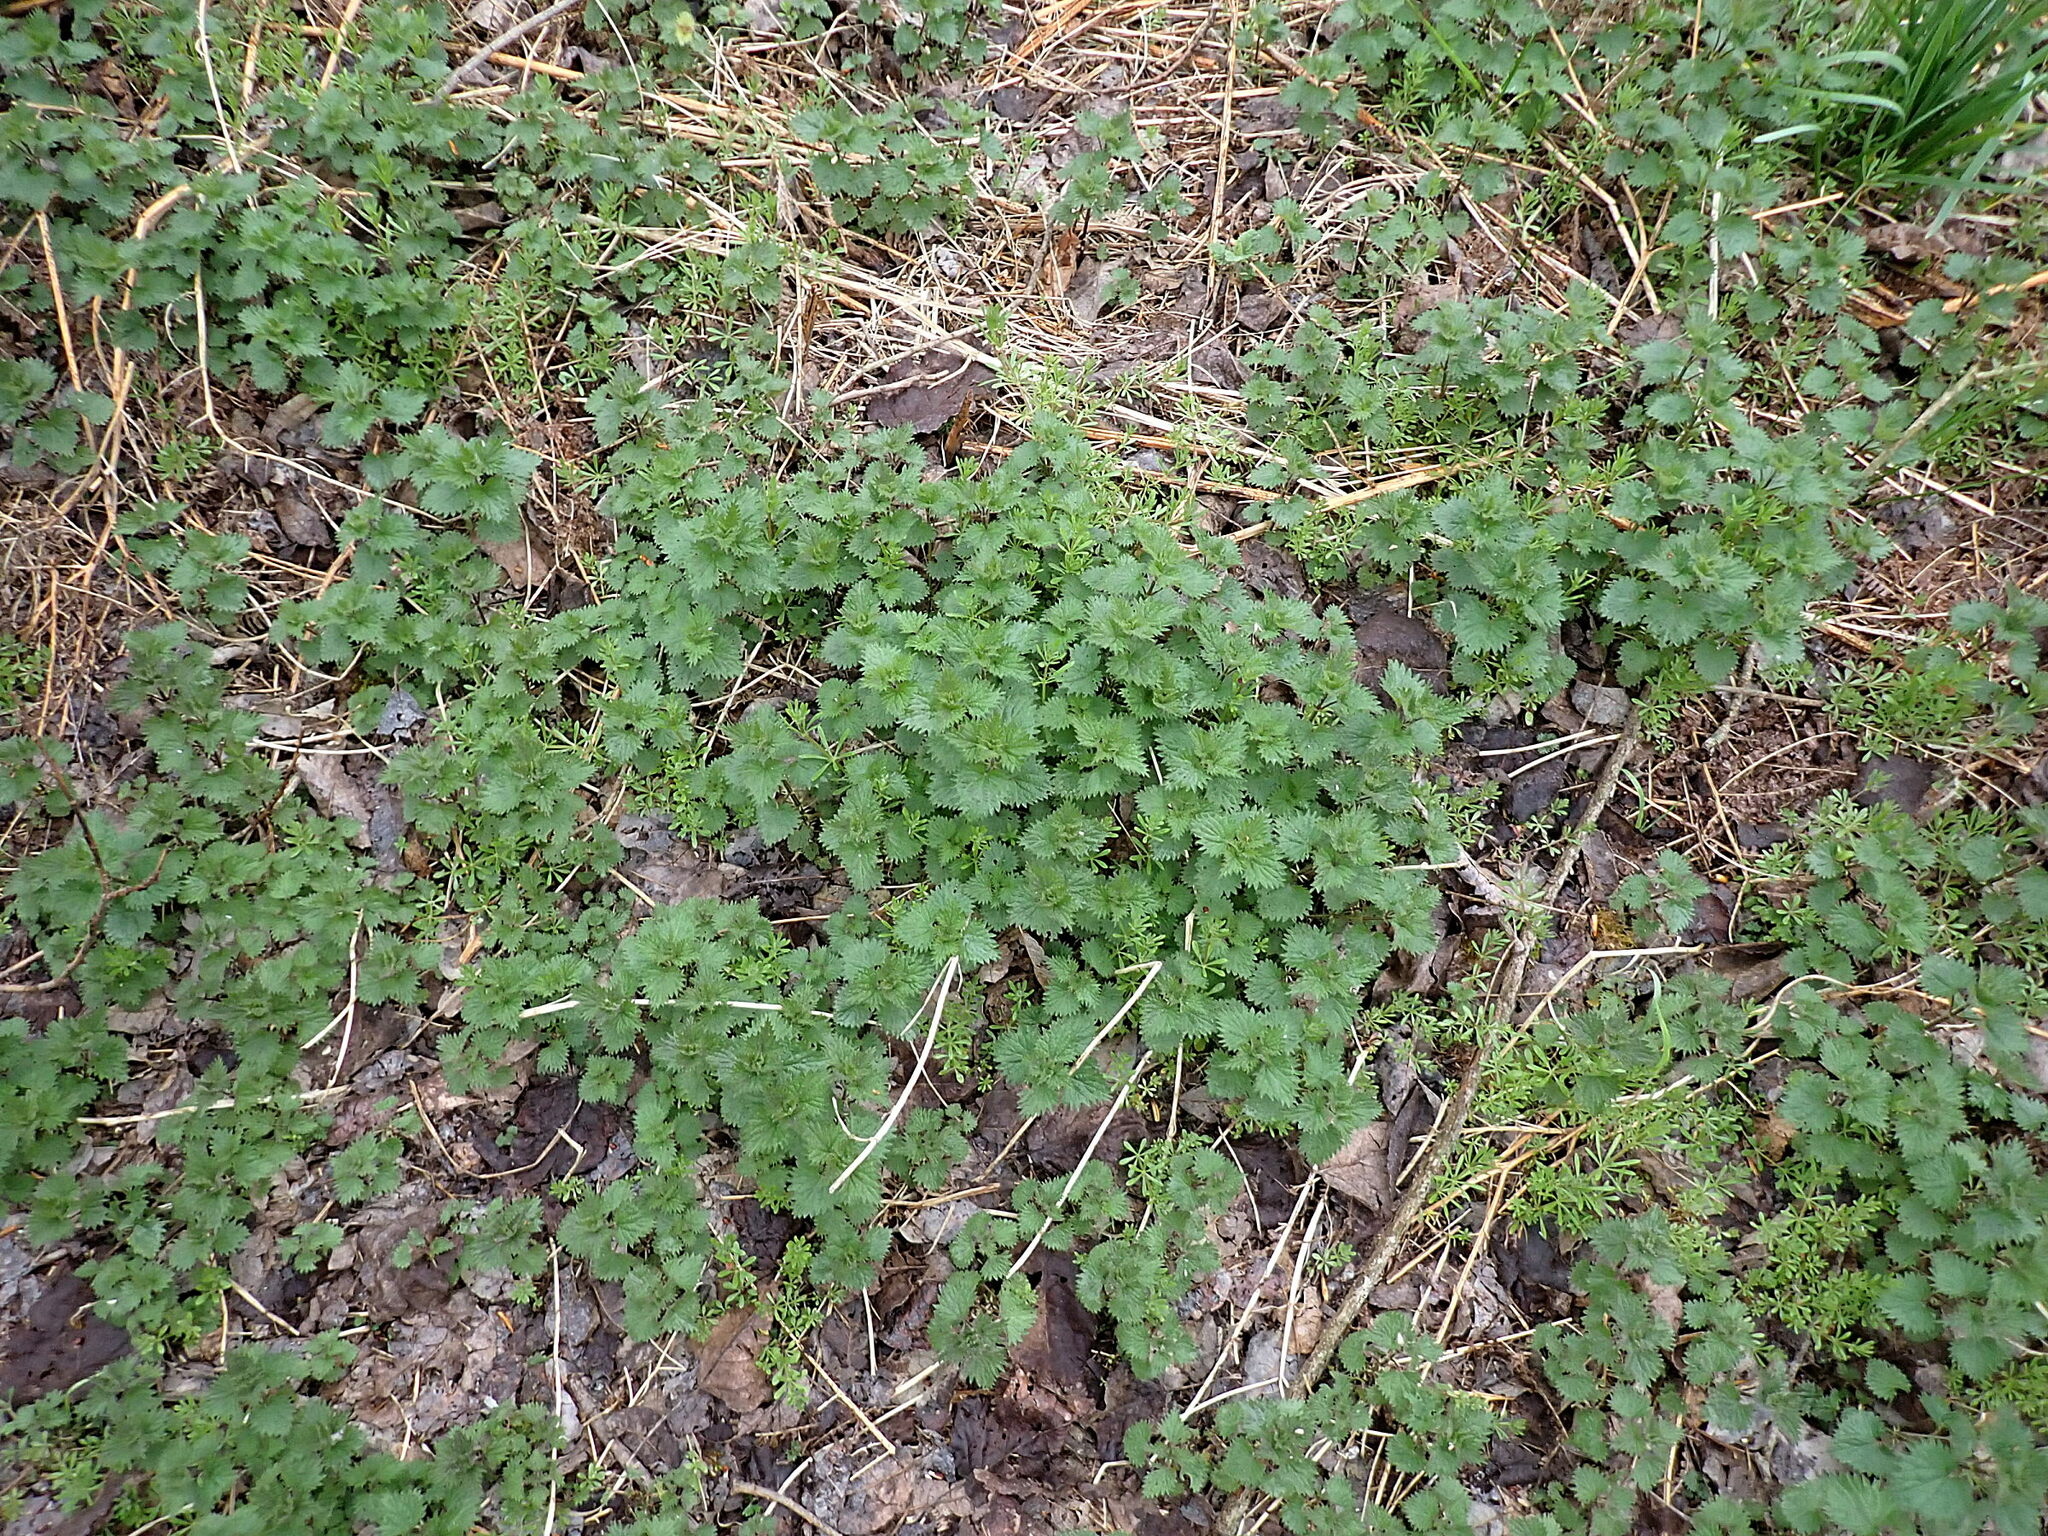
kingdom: Plantae
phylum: Tracheophyta
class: Magnoliopsida
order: Rosales
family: Urticaceae
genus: Urtica
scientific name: Urtica dioica
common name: Common nettle
